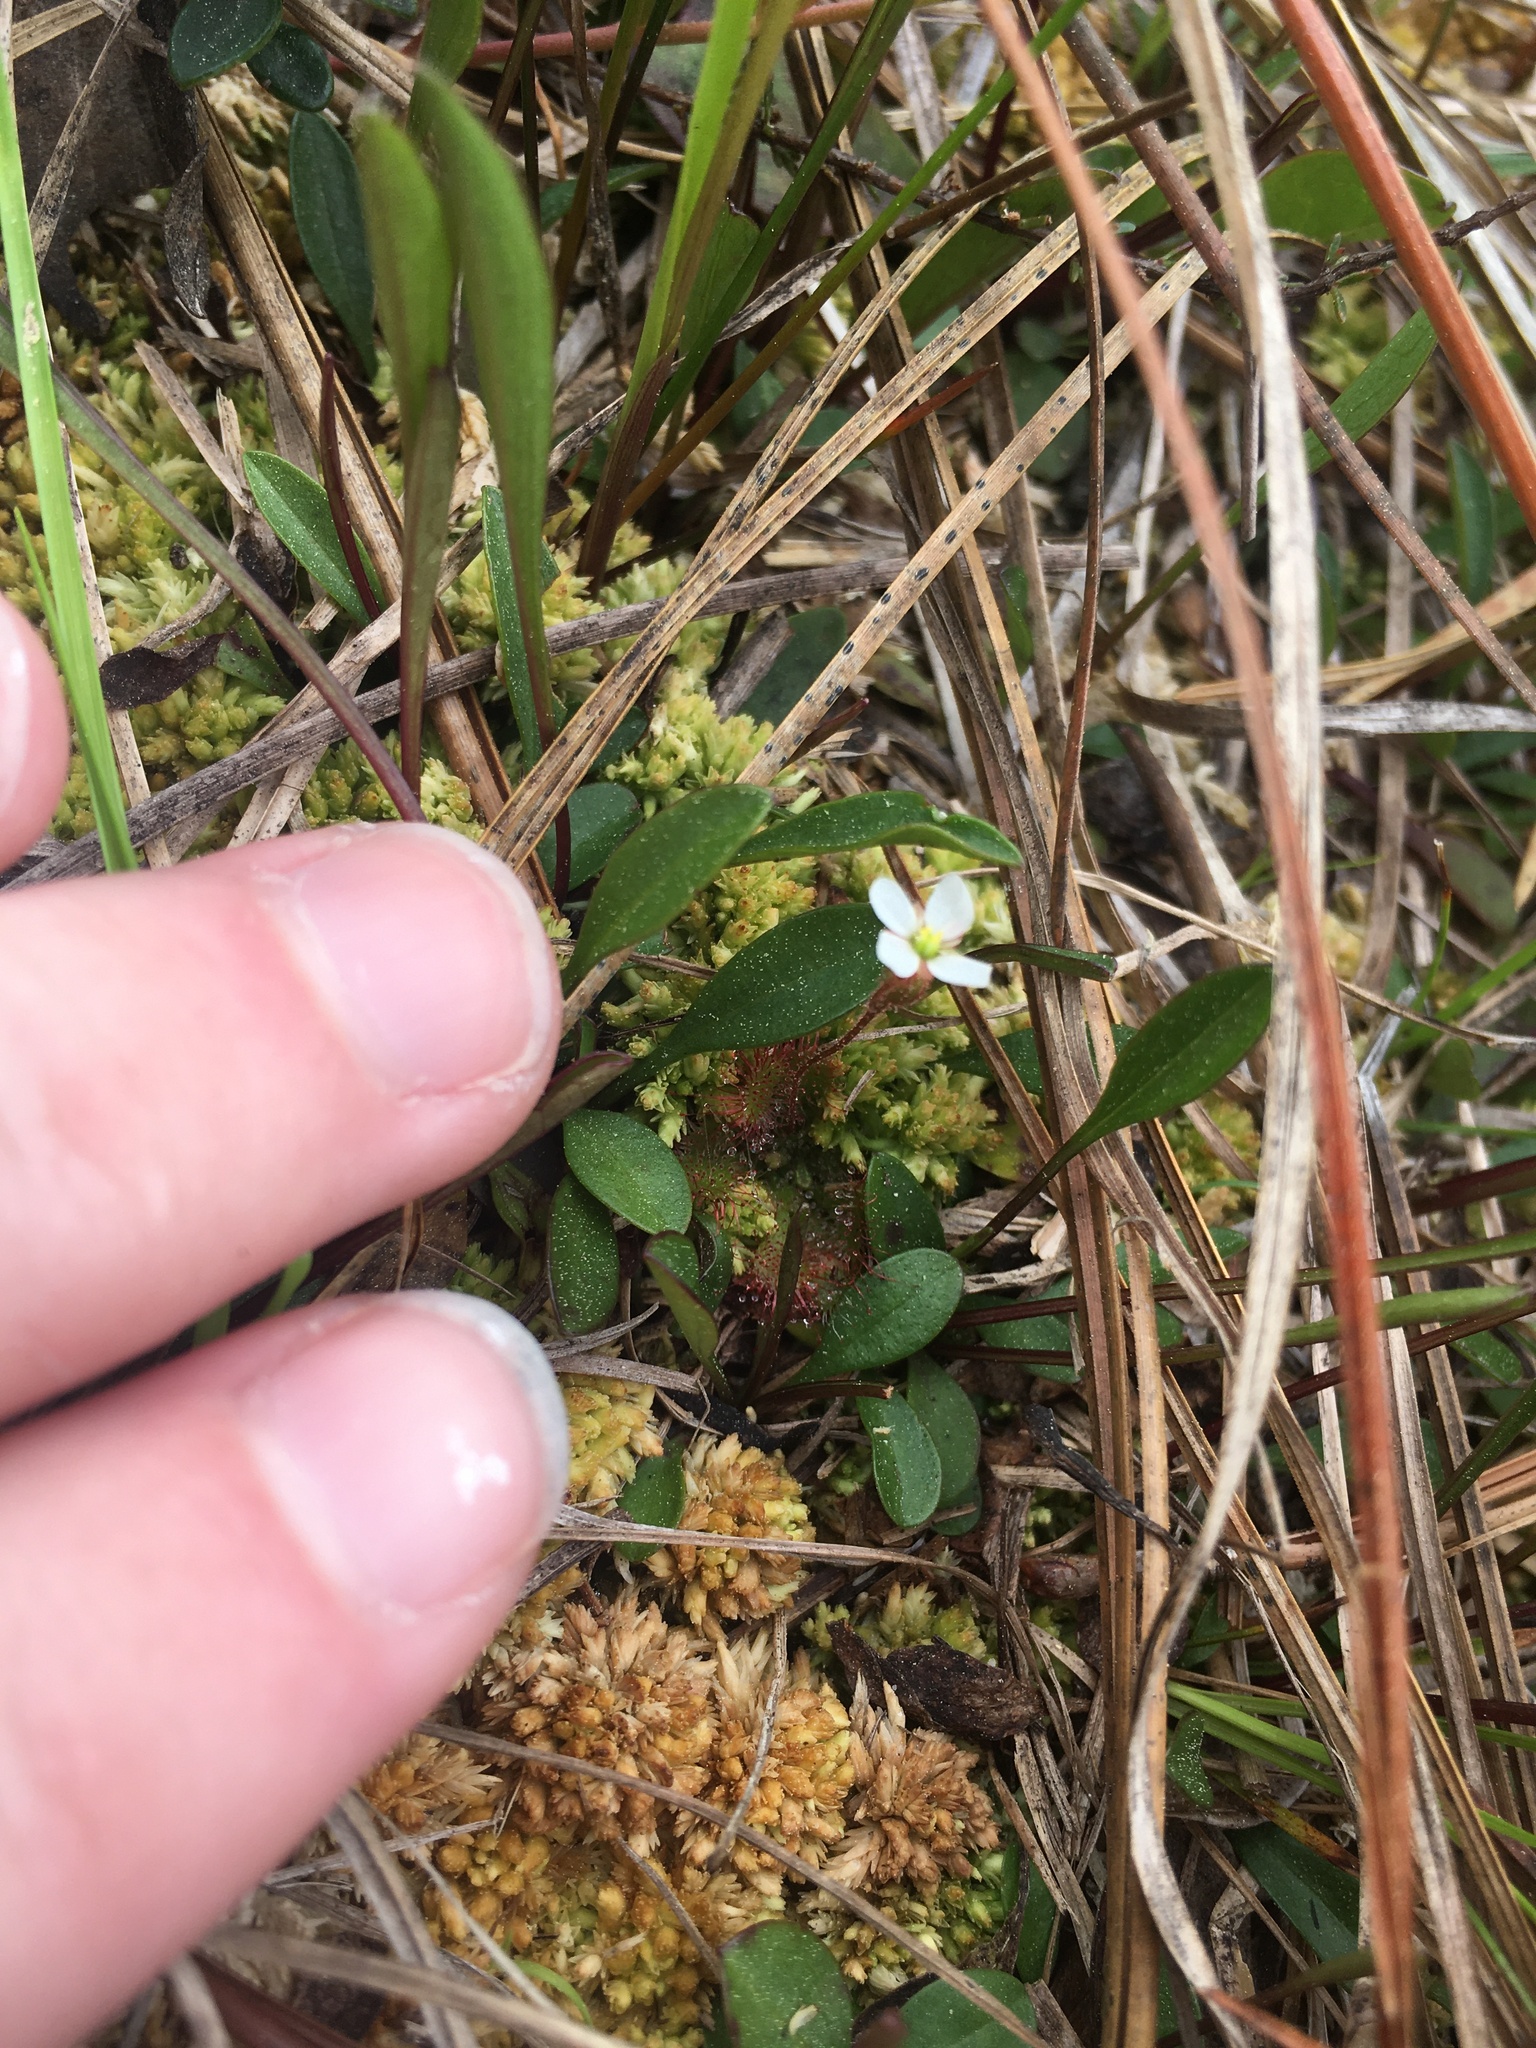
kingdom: Plantae
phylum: Tracheophyta
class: Magnoliopsida
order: Caryophyllales
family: Droseraceae
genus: Drosera
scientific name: Drosera brevifolia
